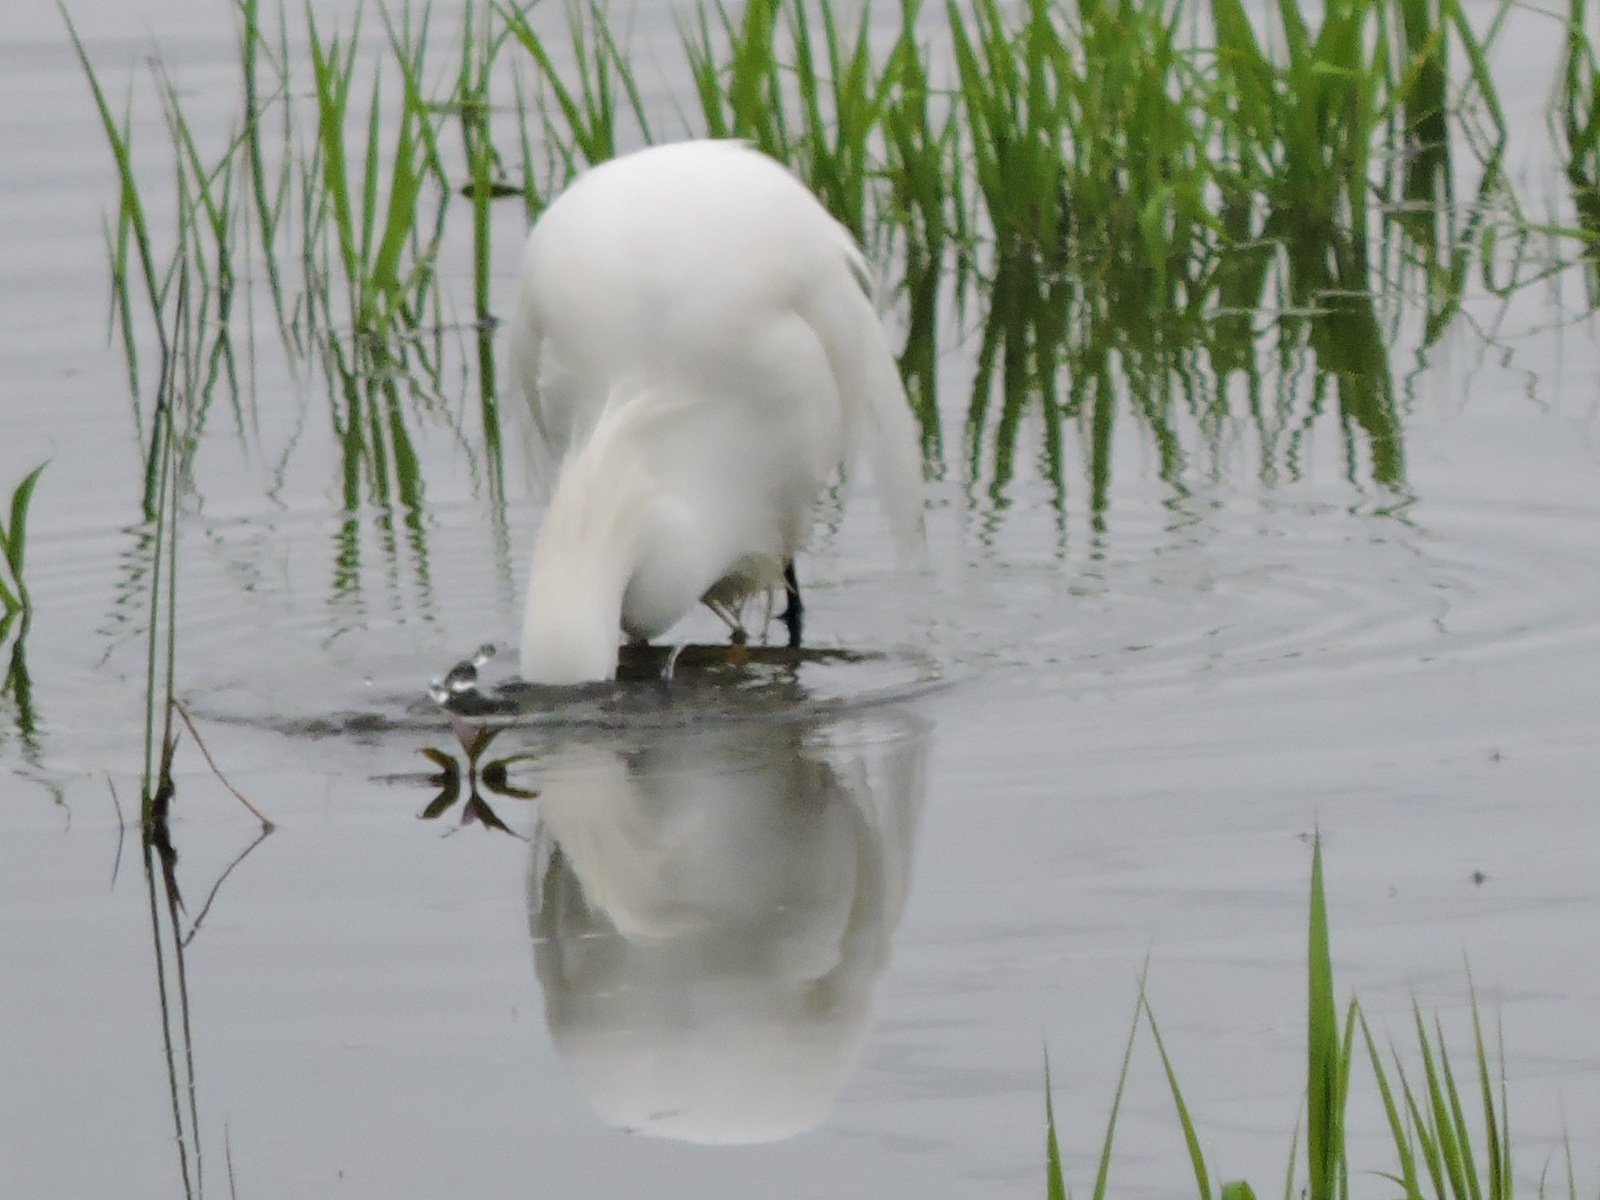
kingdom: Animalia
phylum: Chordata
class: Aves
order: Pelecaniformes
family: Ardeidae
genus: Egretta
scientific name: Egretta thula
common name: Snowy egret
